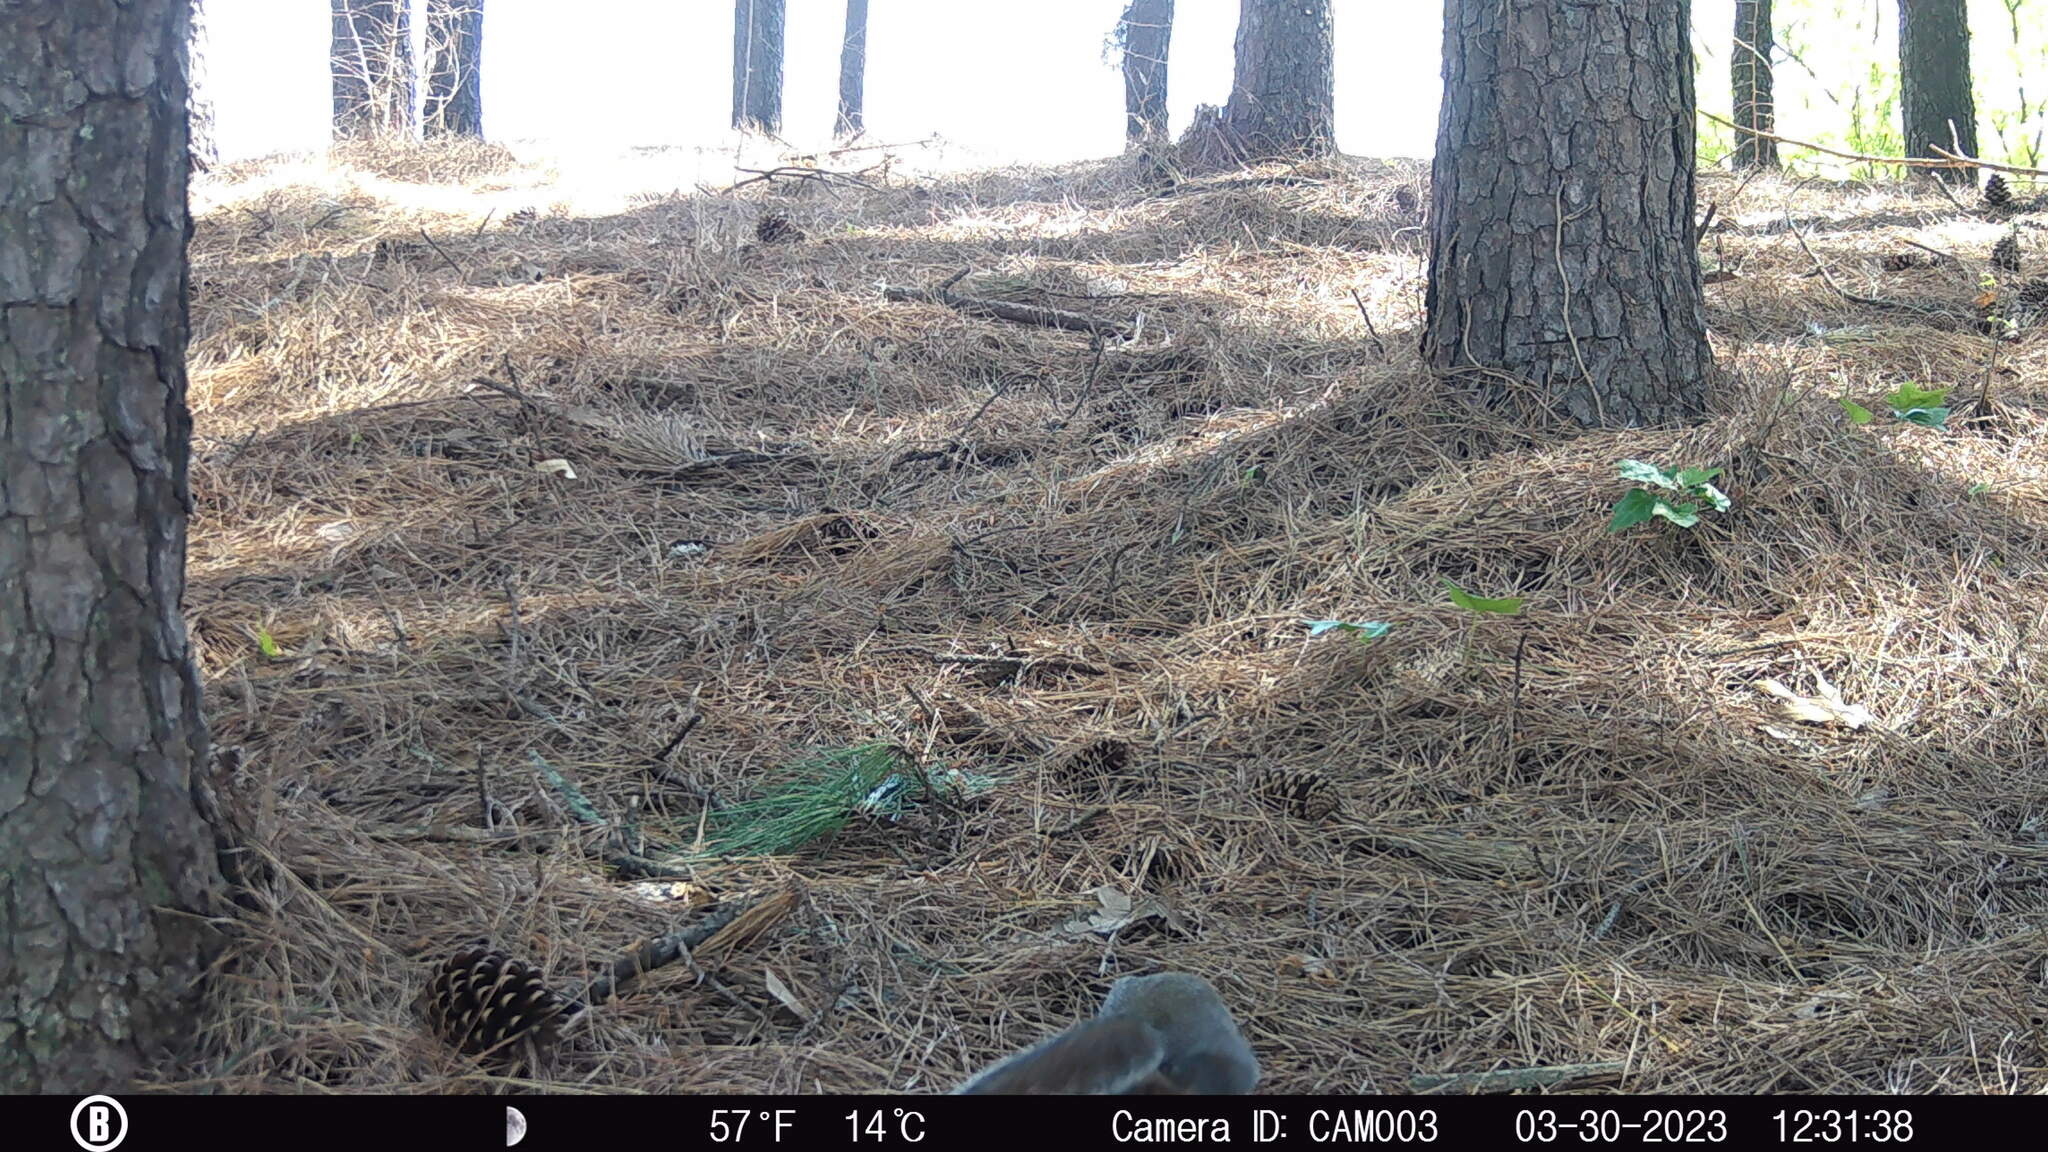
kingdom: Animalia
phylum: Chordata
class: Mammalia
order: Rodentia
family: Sciuridae
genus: Sciurus
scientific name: Sciurus carolinensis
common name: Eastern gray squirrel
